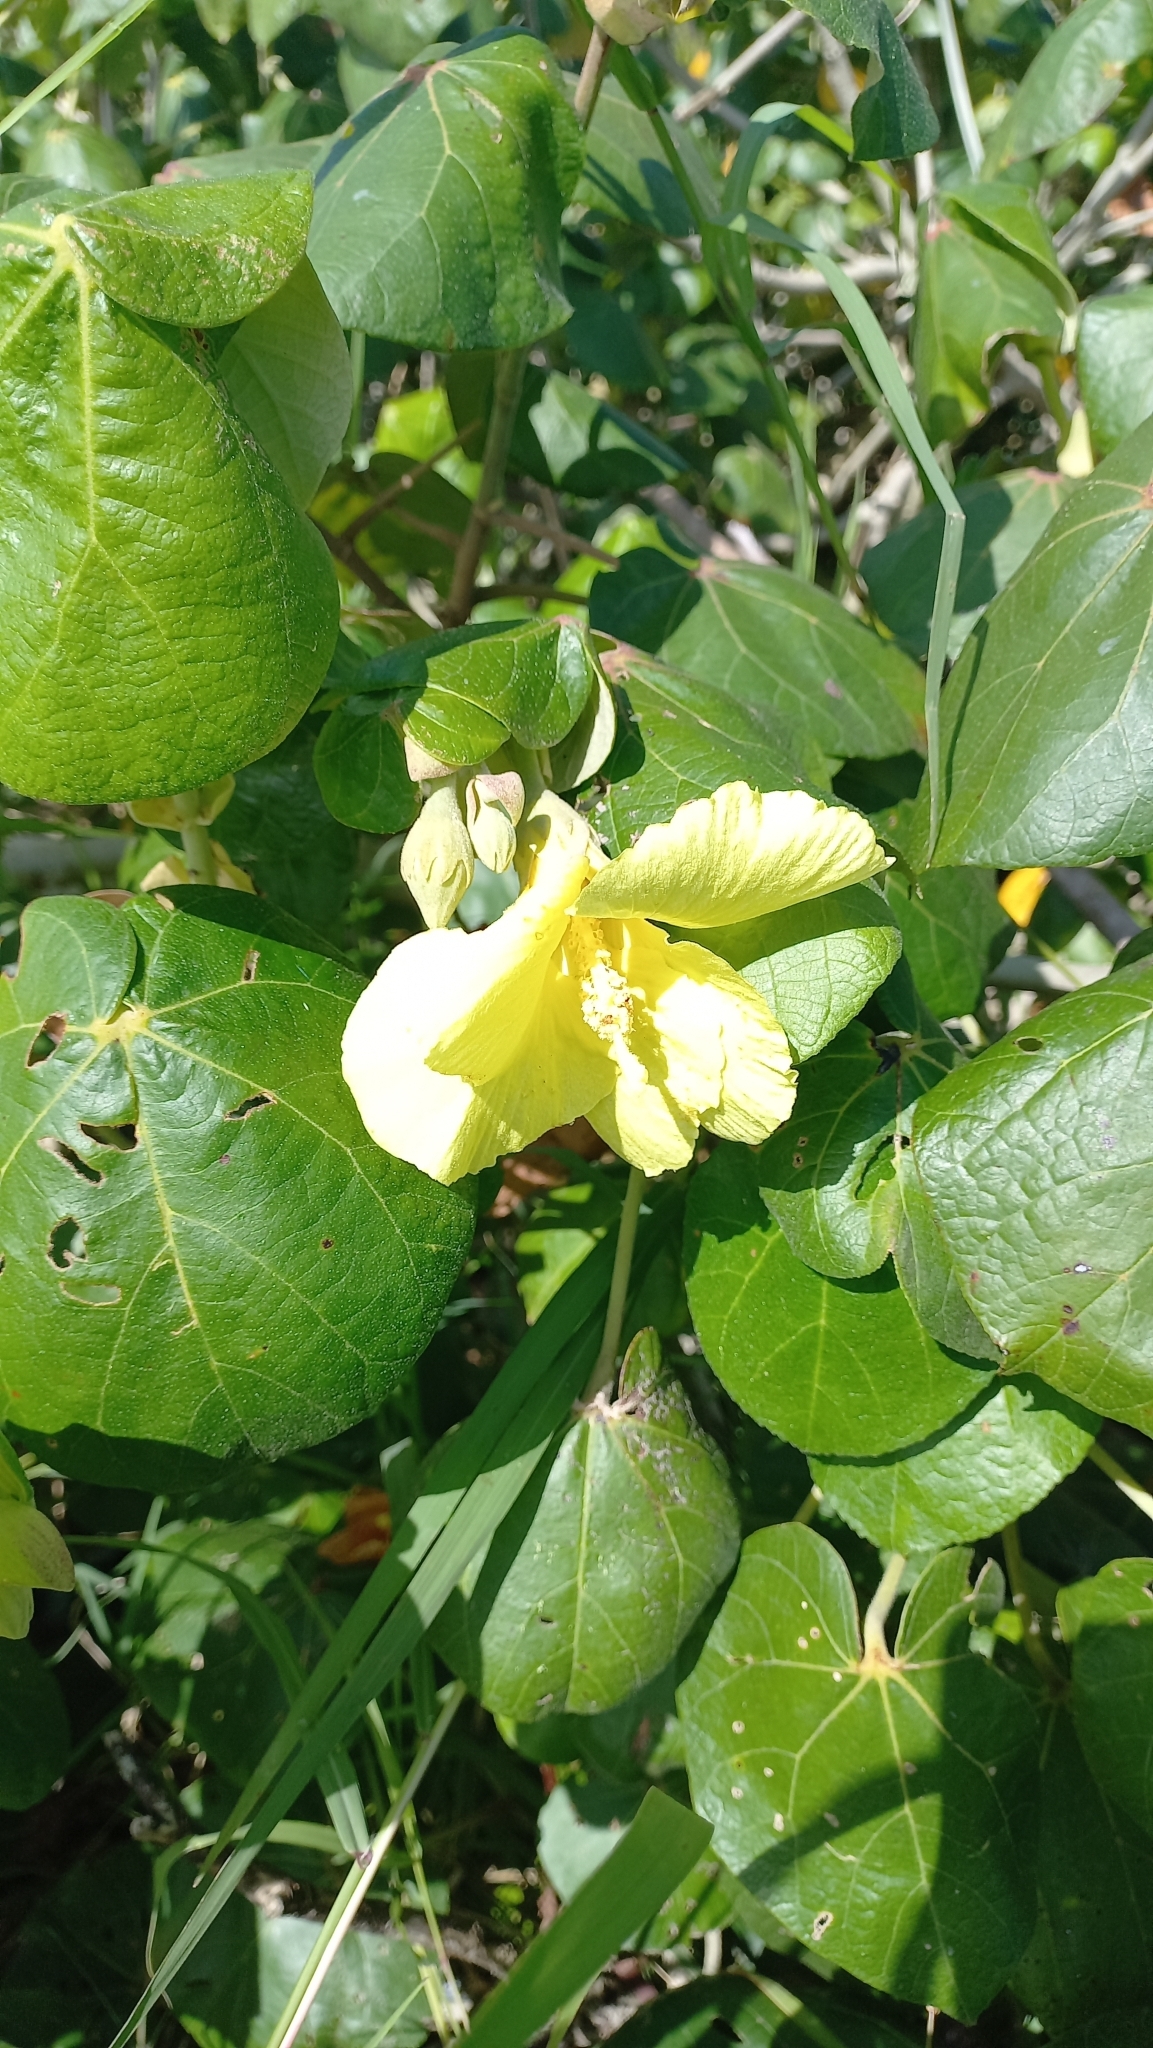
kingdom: Plantae
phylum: Tracheophyta
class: Magnoliopsida
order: Malvales
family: Malvaceae
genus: Talipariti
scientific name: Talipariti pernambucense
